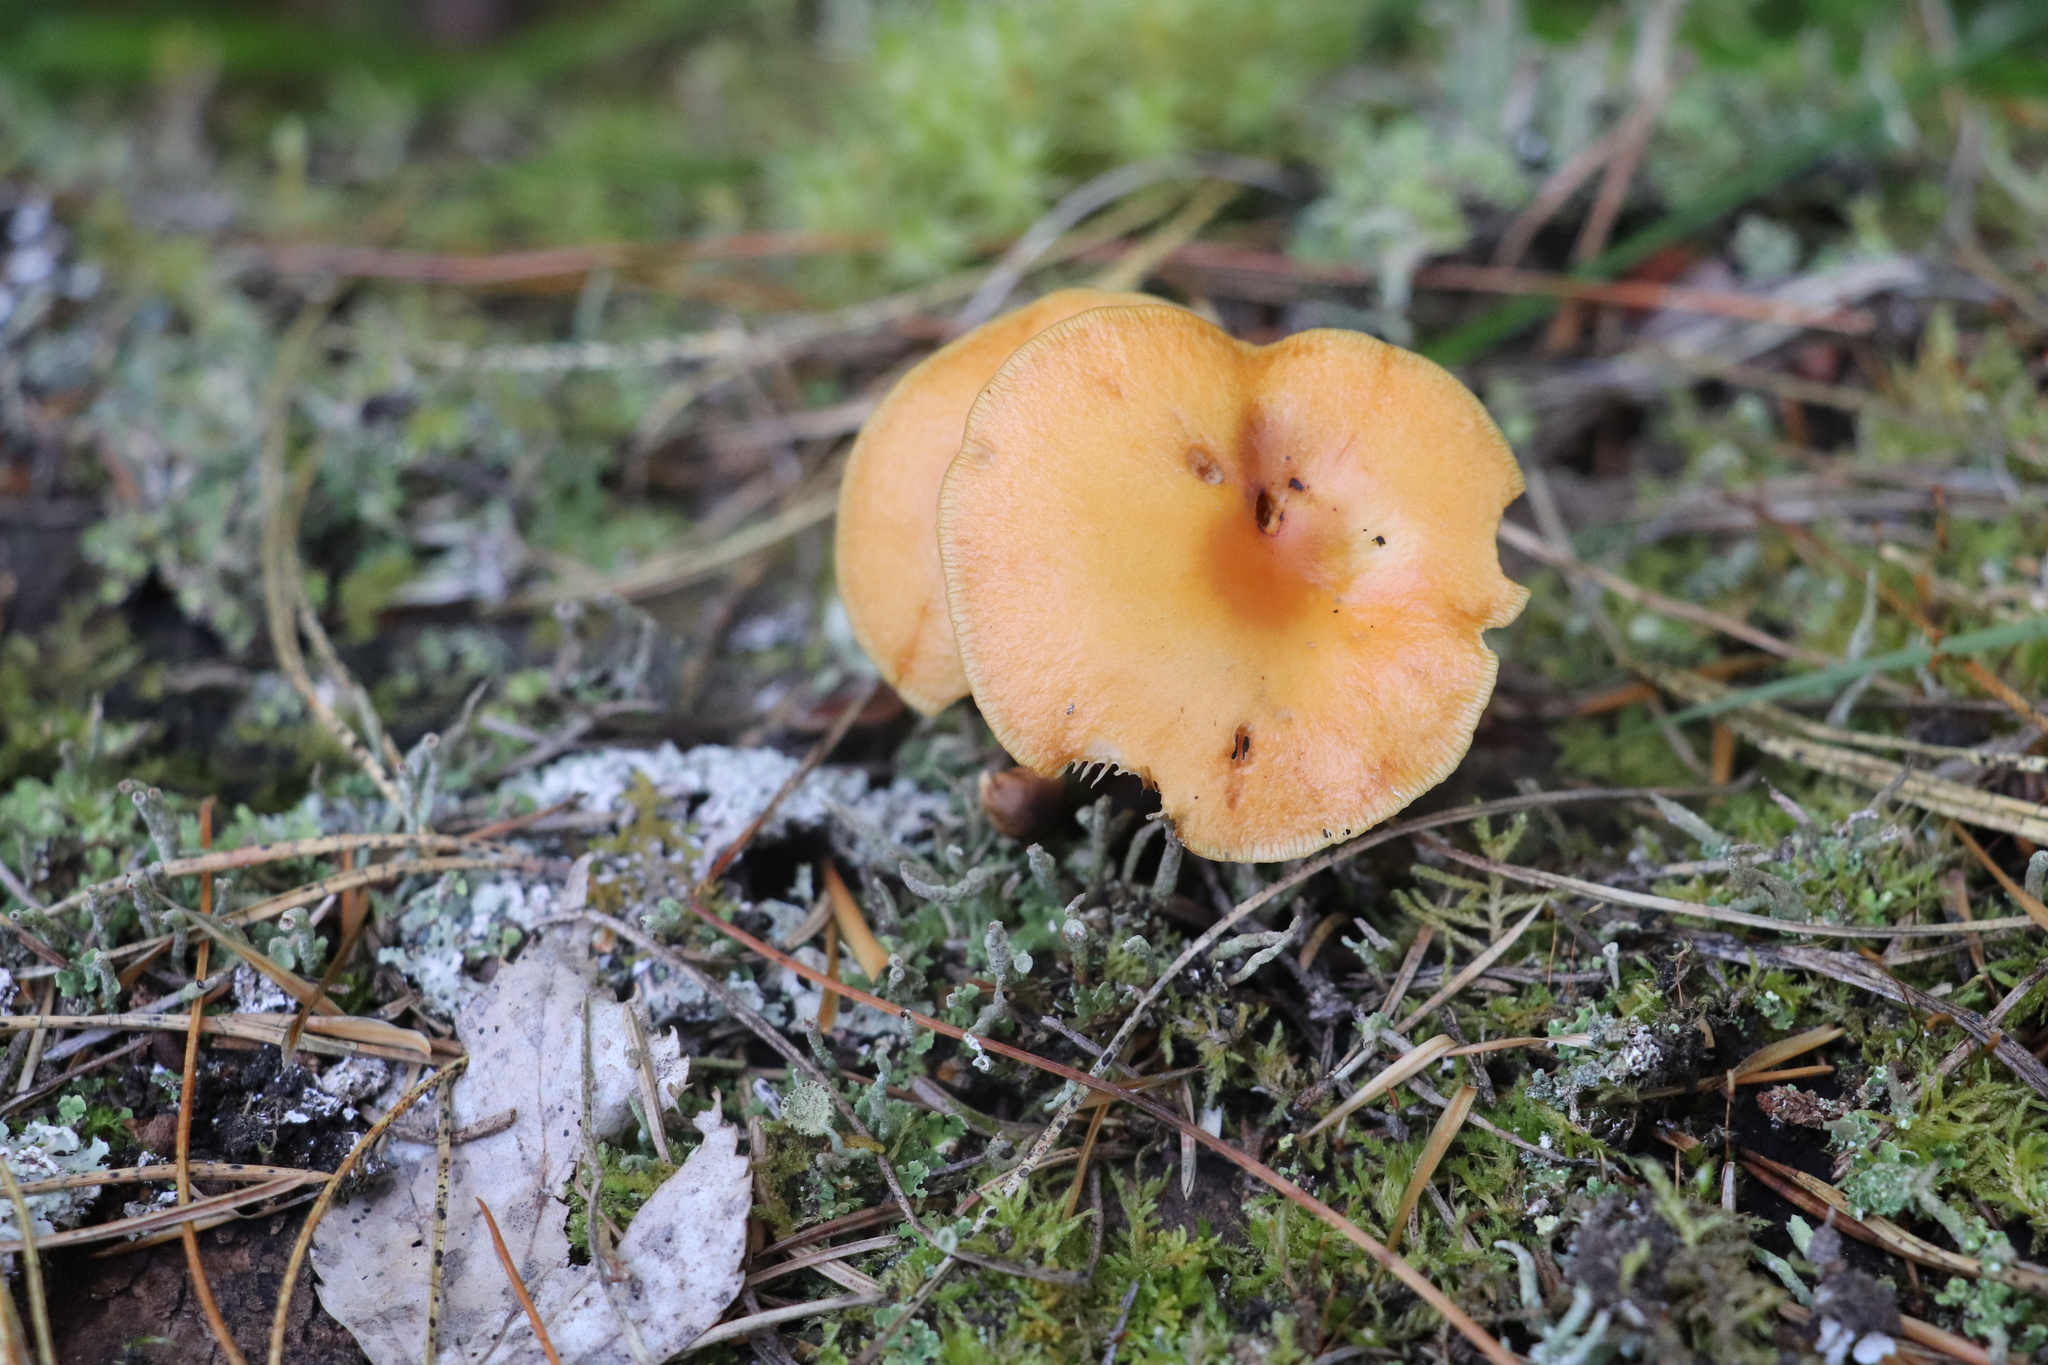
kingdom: Fungi
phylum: Basidiomycota
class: Agaricomycetes
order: Agaricales
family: Physalacriaceae
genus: Flammulina
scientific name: Flammulina velutipes
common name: Velvet shank
